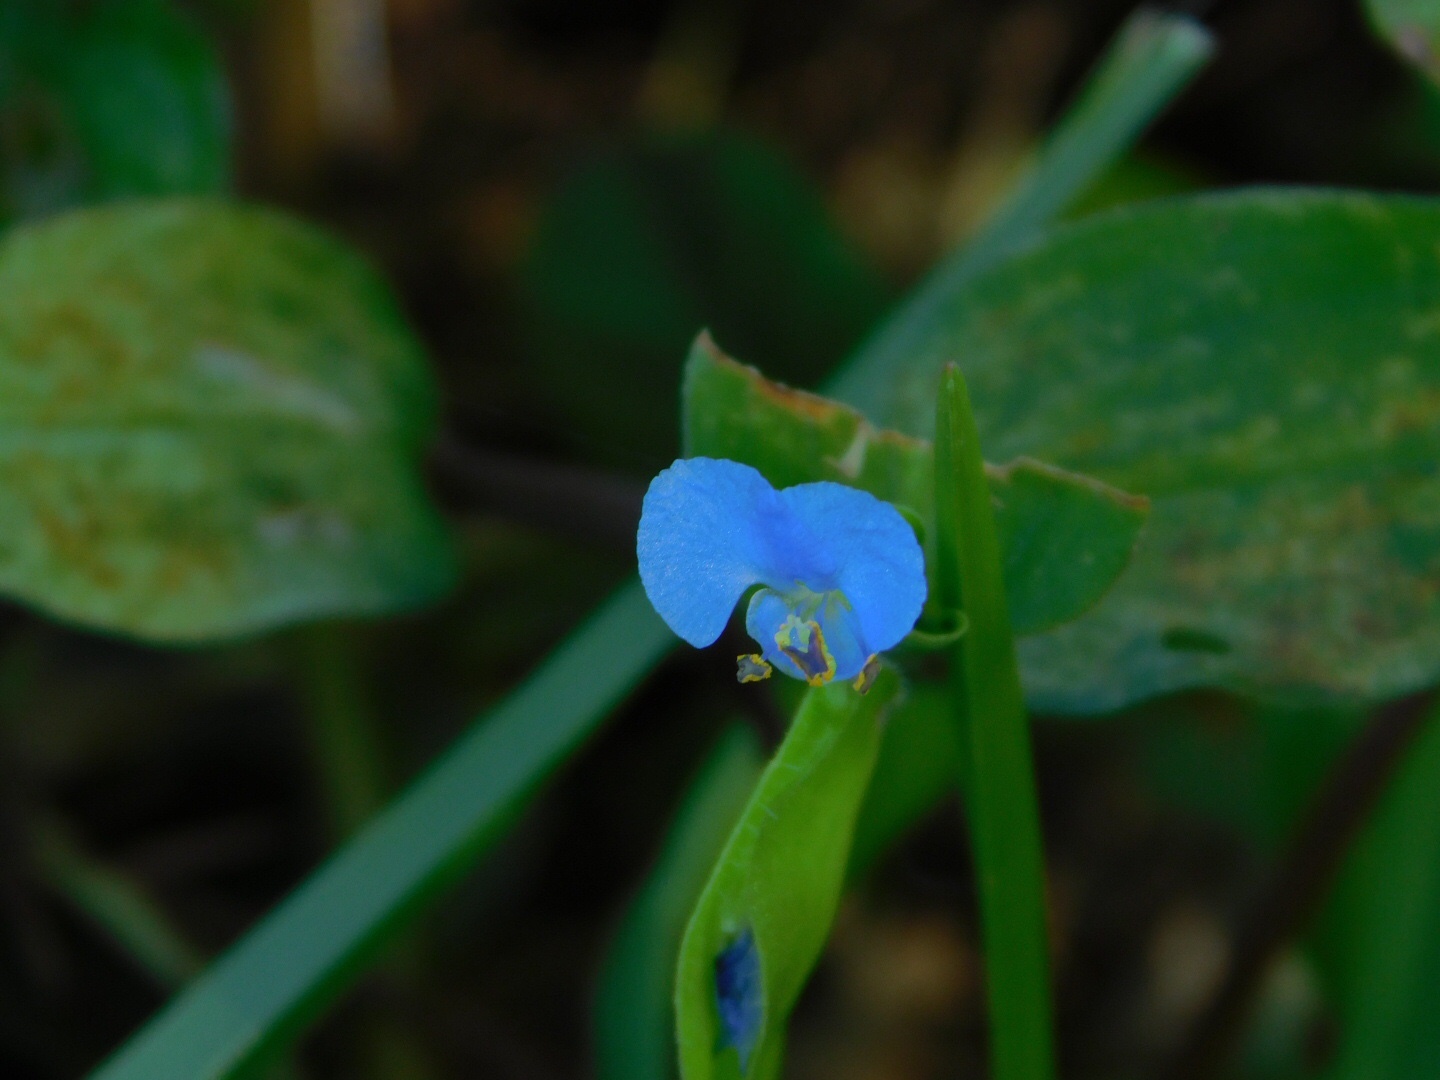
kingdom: Plantae
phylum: Tracheophyta
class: Liliopsida
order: Commelinales
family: Commelinaceae
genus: Commelina
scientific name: Commelina diffusa
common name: Climbing dayflower
